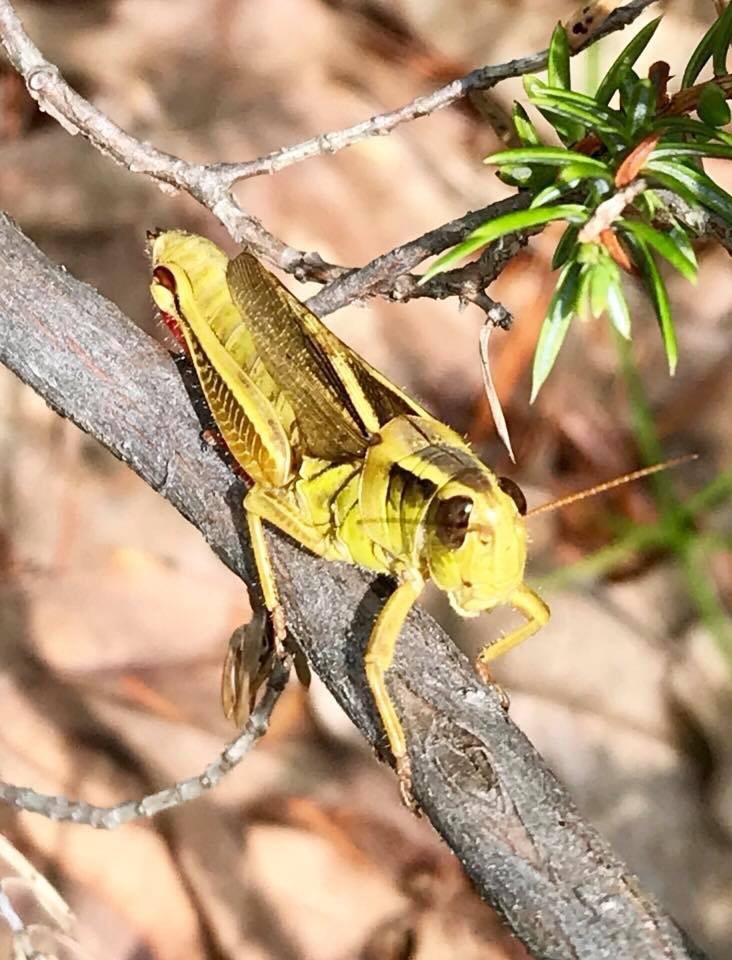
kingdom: Animalia
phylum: Arthropoda
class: Insecta
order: Orthoptera
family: Acrididae
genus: Melanoplus
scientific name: Melanoplus bivittatus
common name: Two-striped grasshopper
